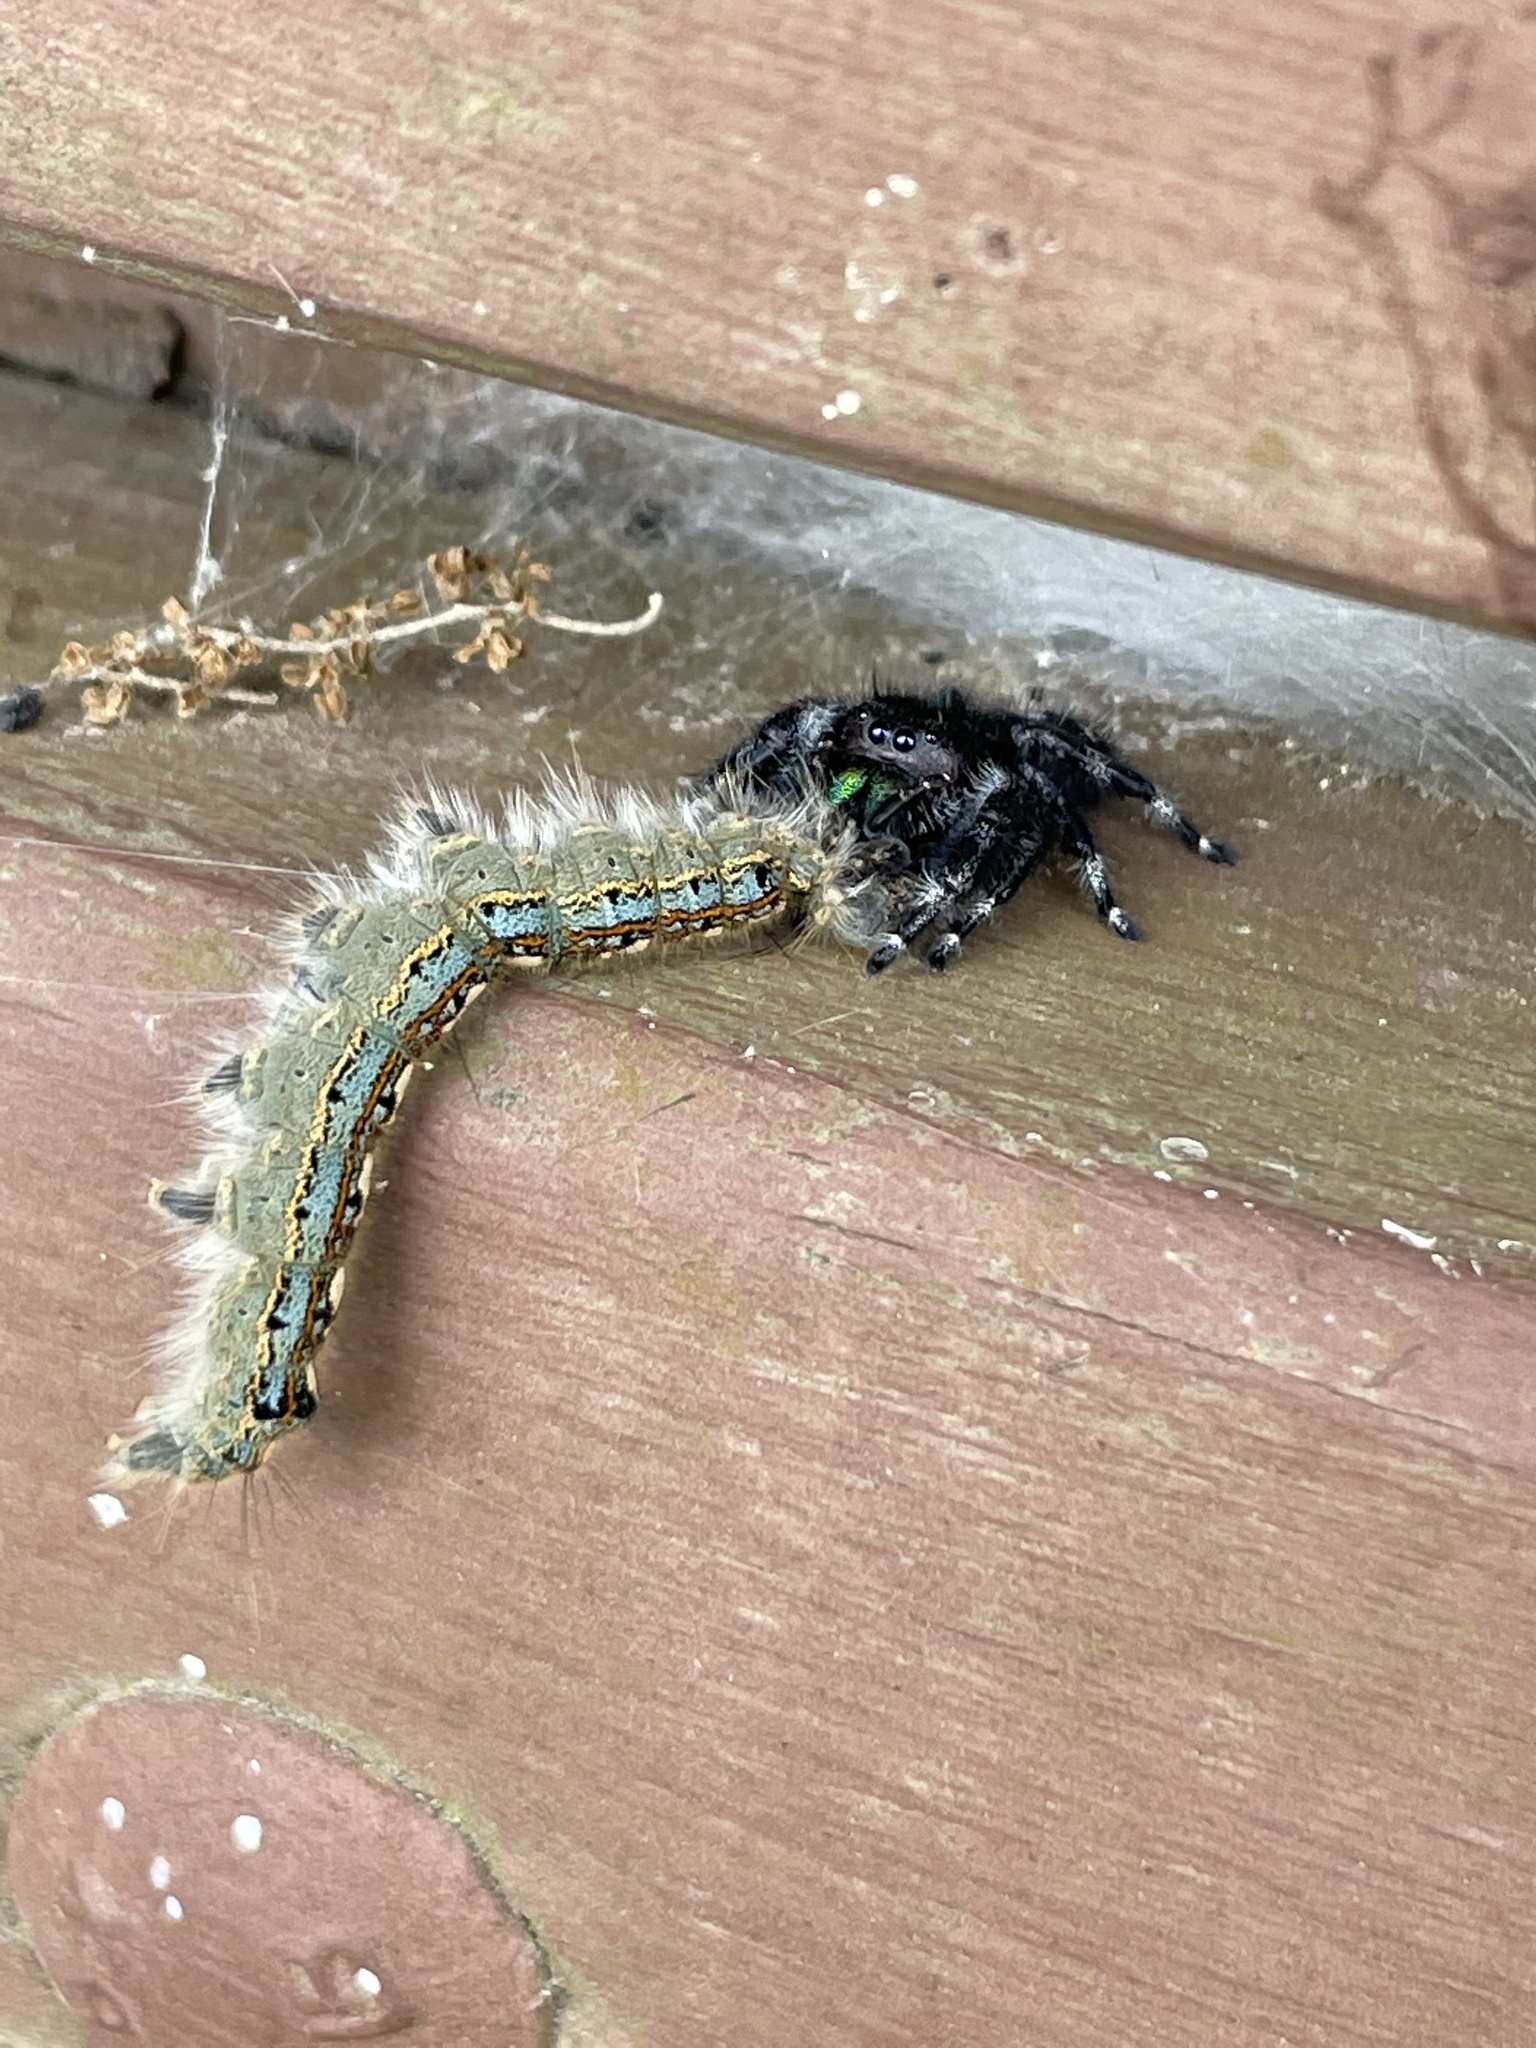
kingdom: Animalia
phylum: Arthropoda
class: Arachnida
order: Araneae
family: Salticidae
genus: Phidippus
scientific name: Phidippus audax
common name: Bold jumper
